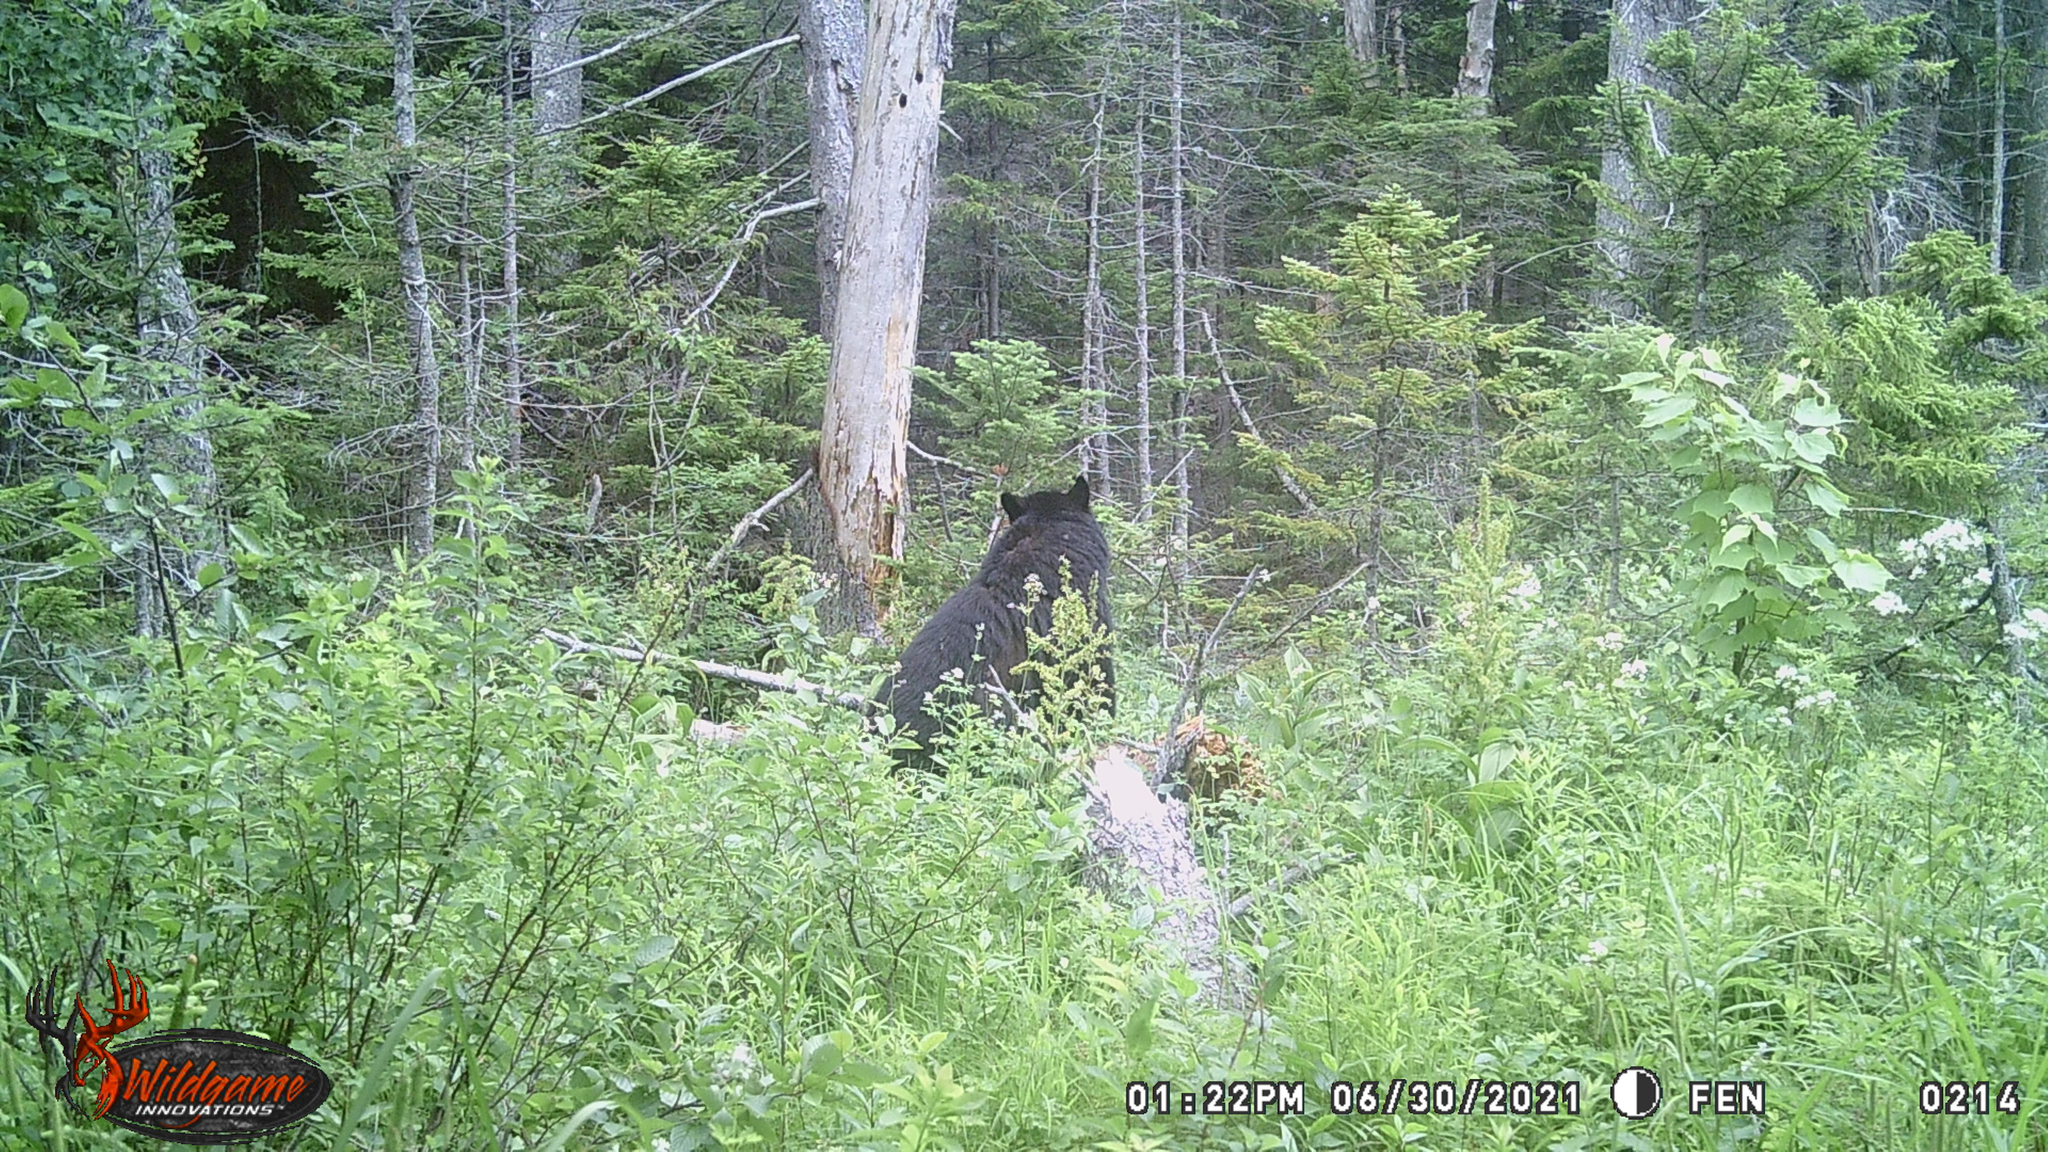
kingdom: Animalia
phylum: Chordata
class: Mammalia
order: Carnivora
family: Ursidae
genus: Ursus
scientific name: Ursus americanus
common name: American black bear
